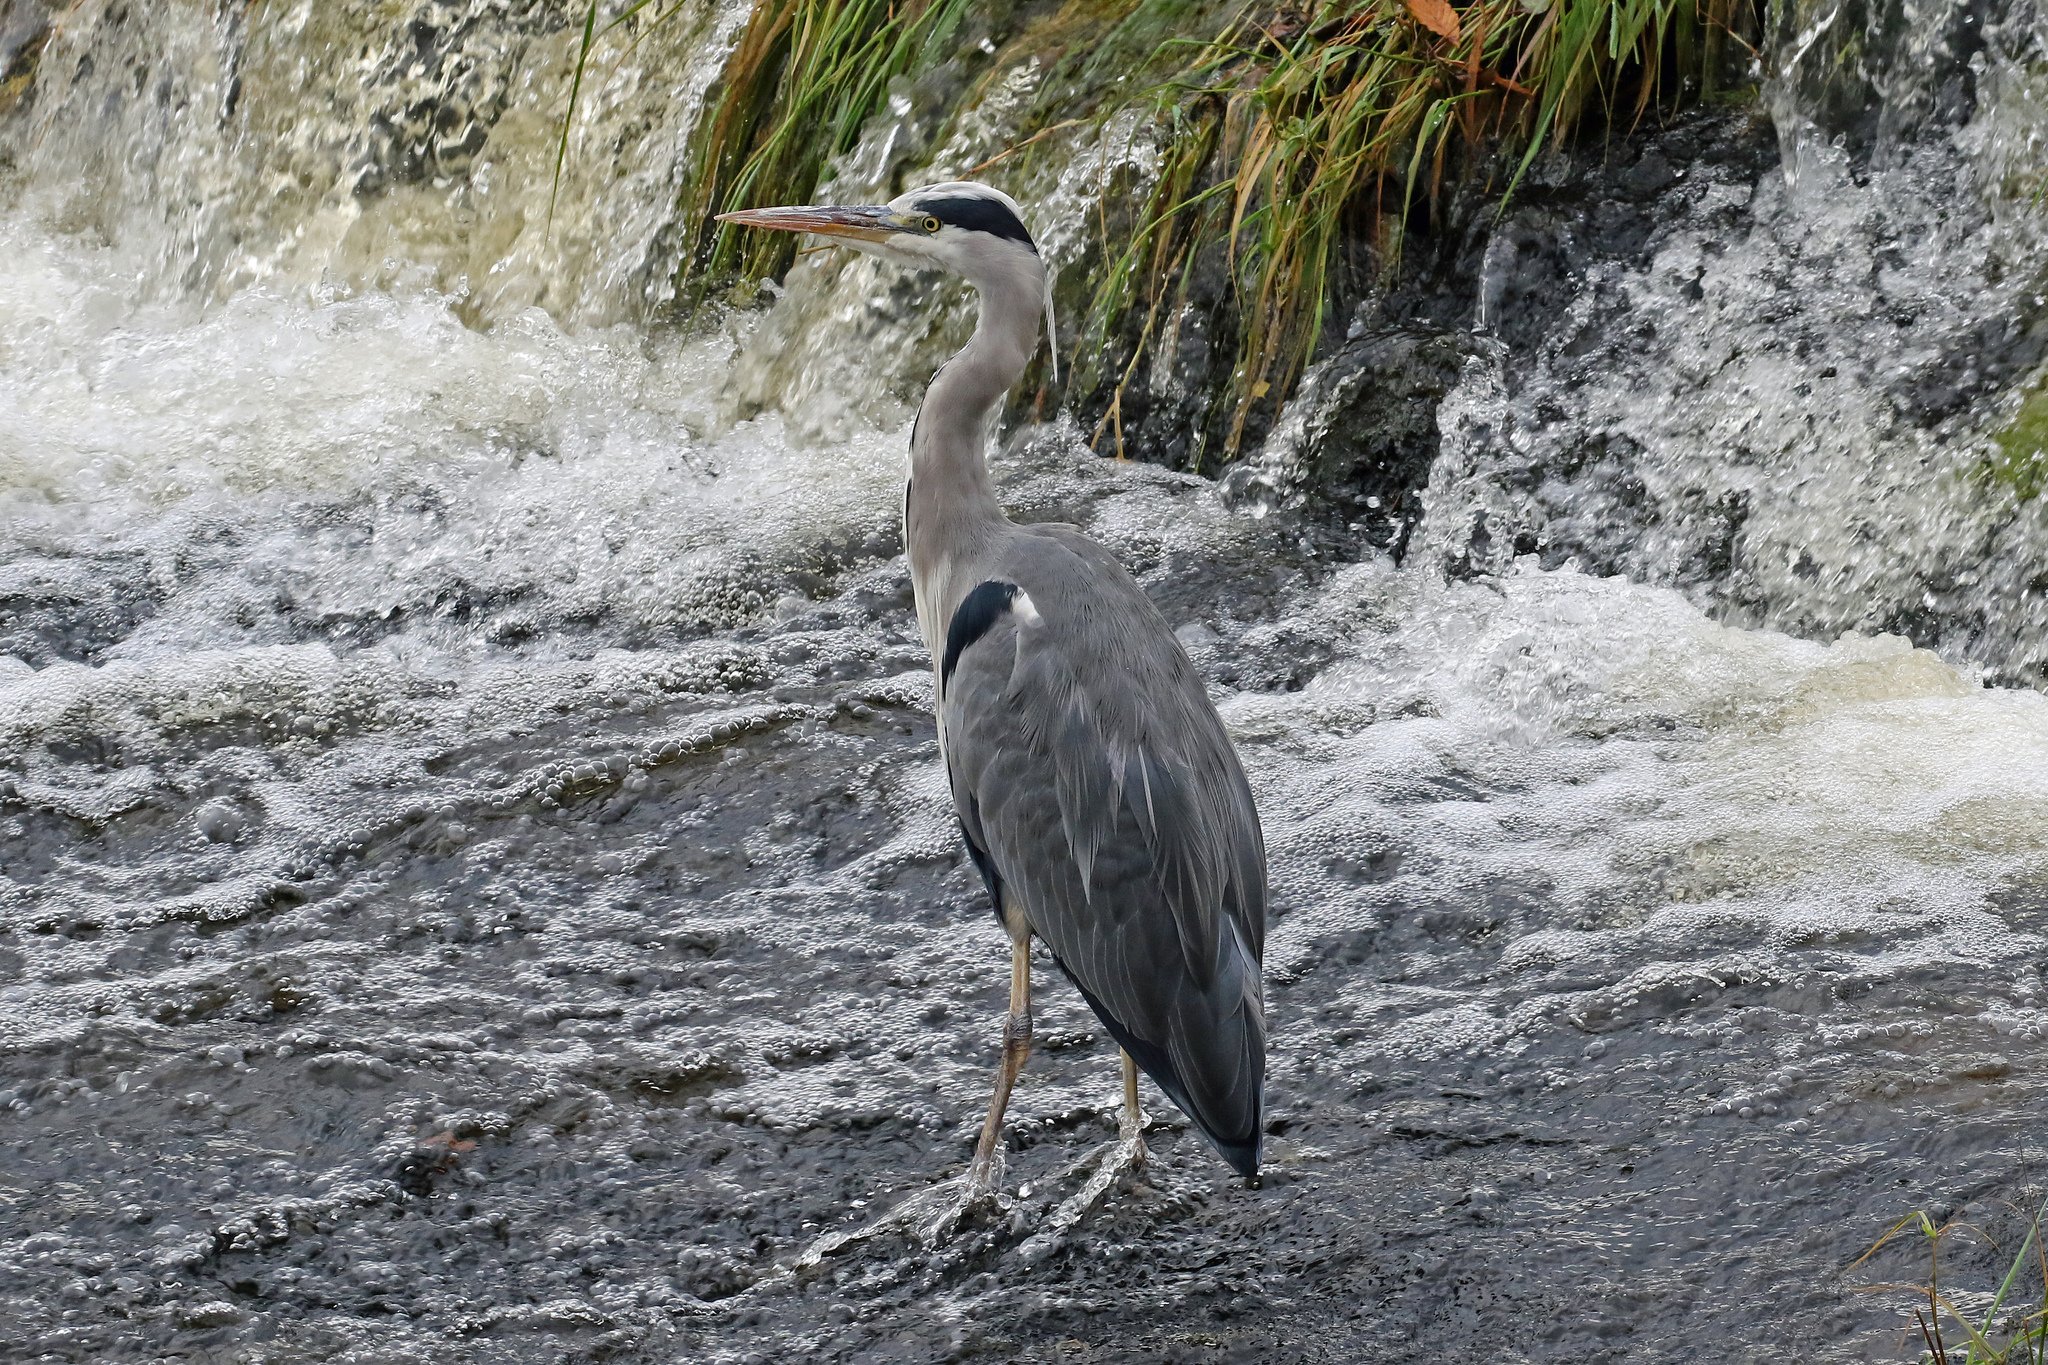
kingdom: Animalia
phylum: Chordata
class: Aves
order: Pelecaniformes
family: Ardeidae
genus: Ardea
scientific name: Ardea cinerea
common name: Grey heron
